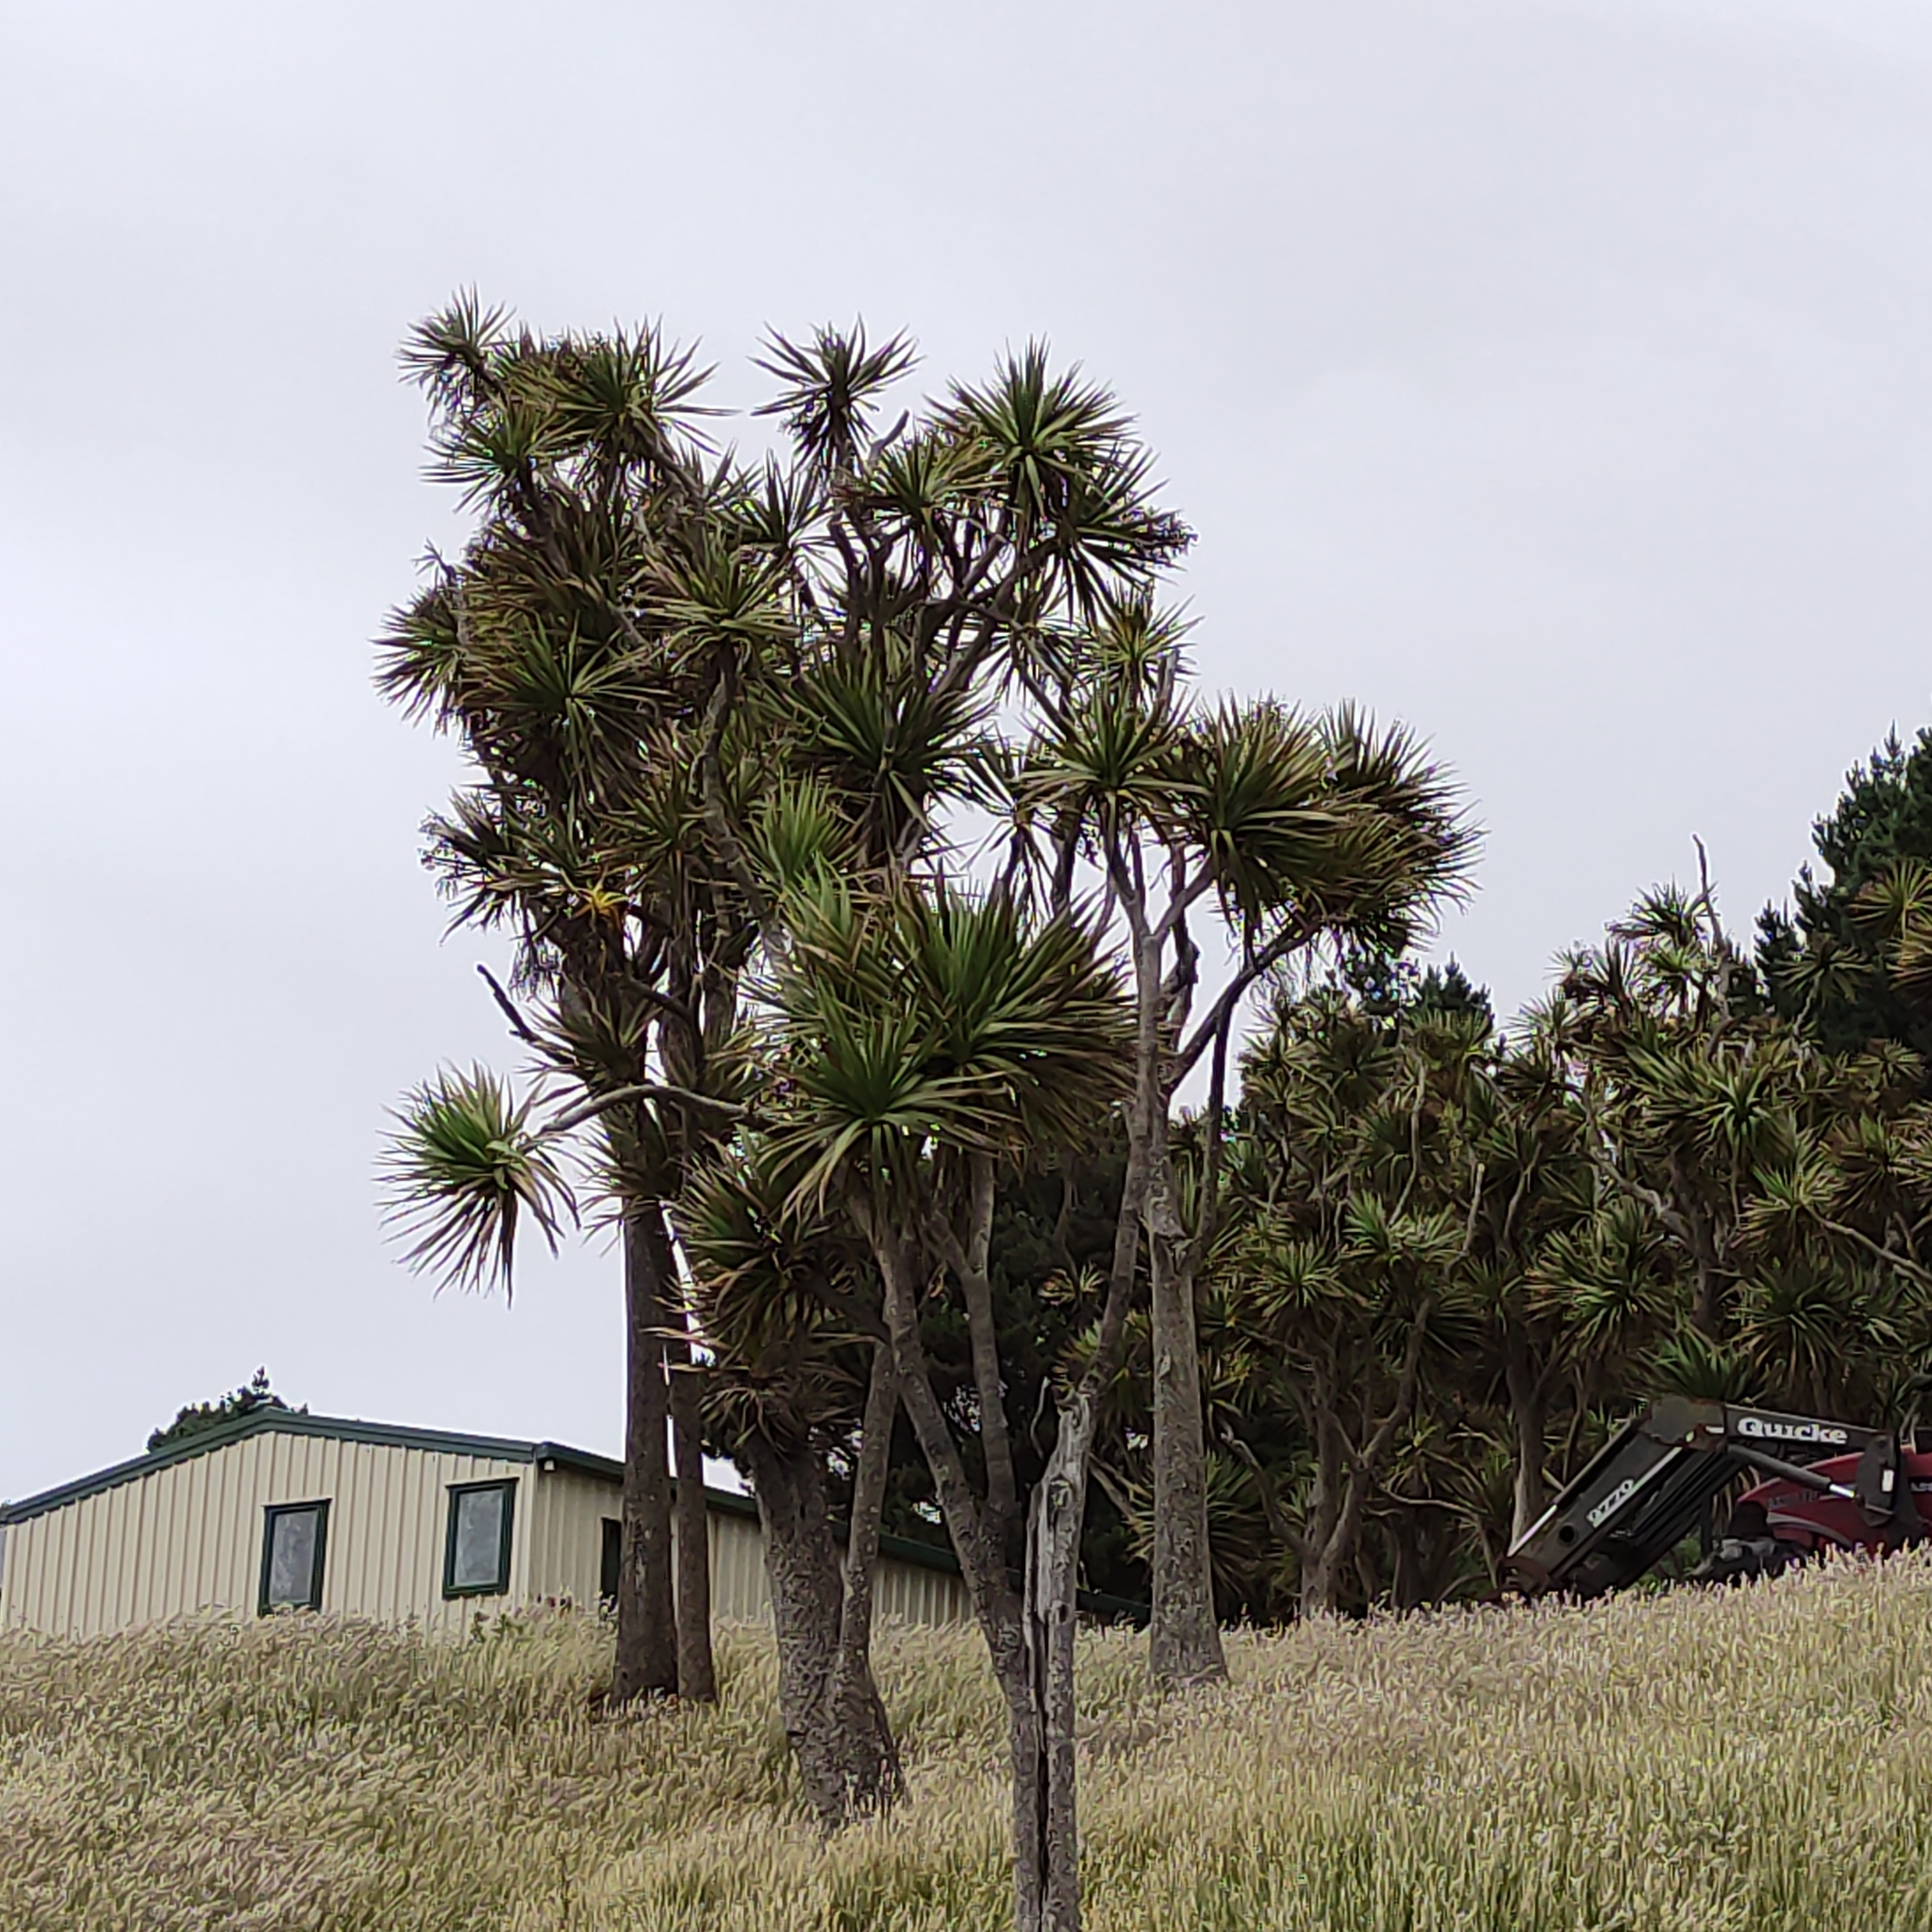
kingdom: Plantae
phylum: Tracheophyta
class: Liliopsida
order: Asparagales
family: Asparagaceae
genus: Cordyline
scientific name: Cordyline australis
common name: Cabbage-palm
